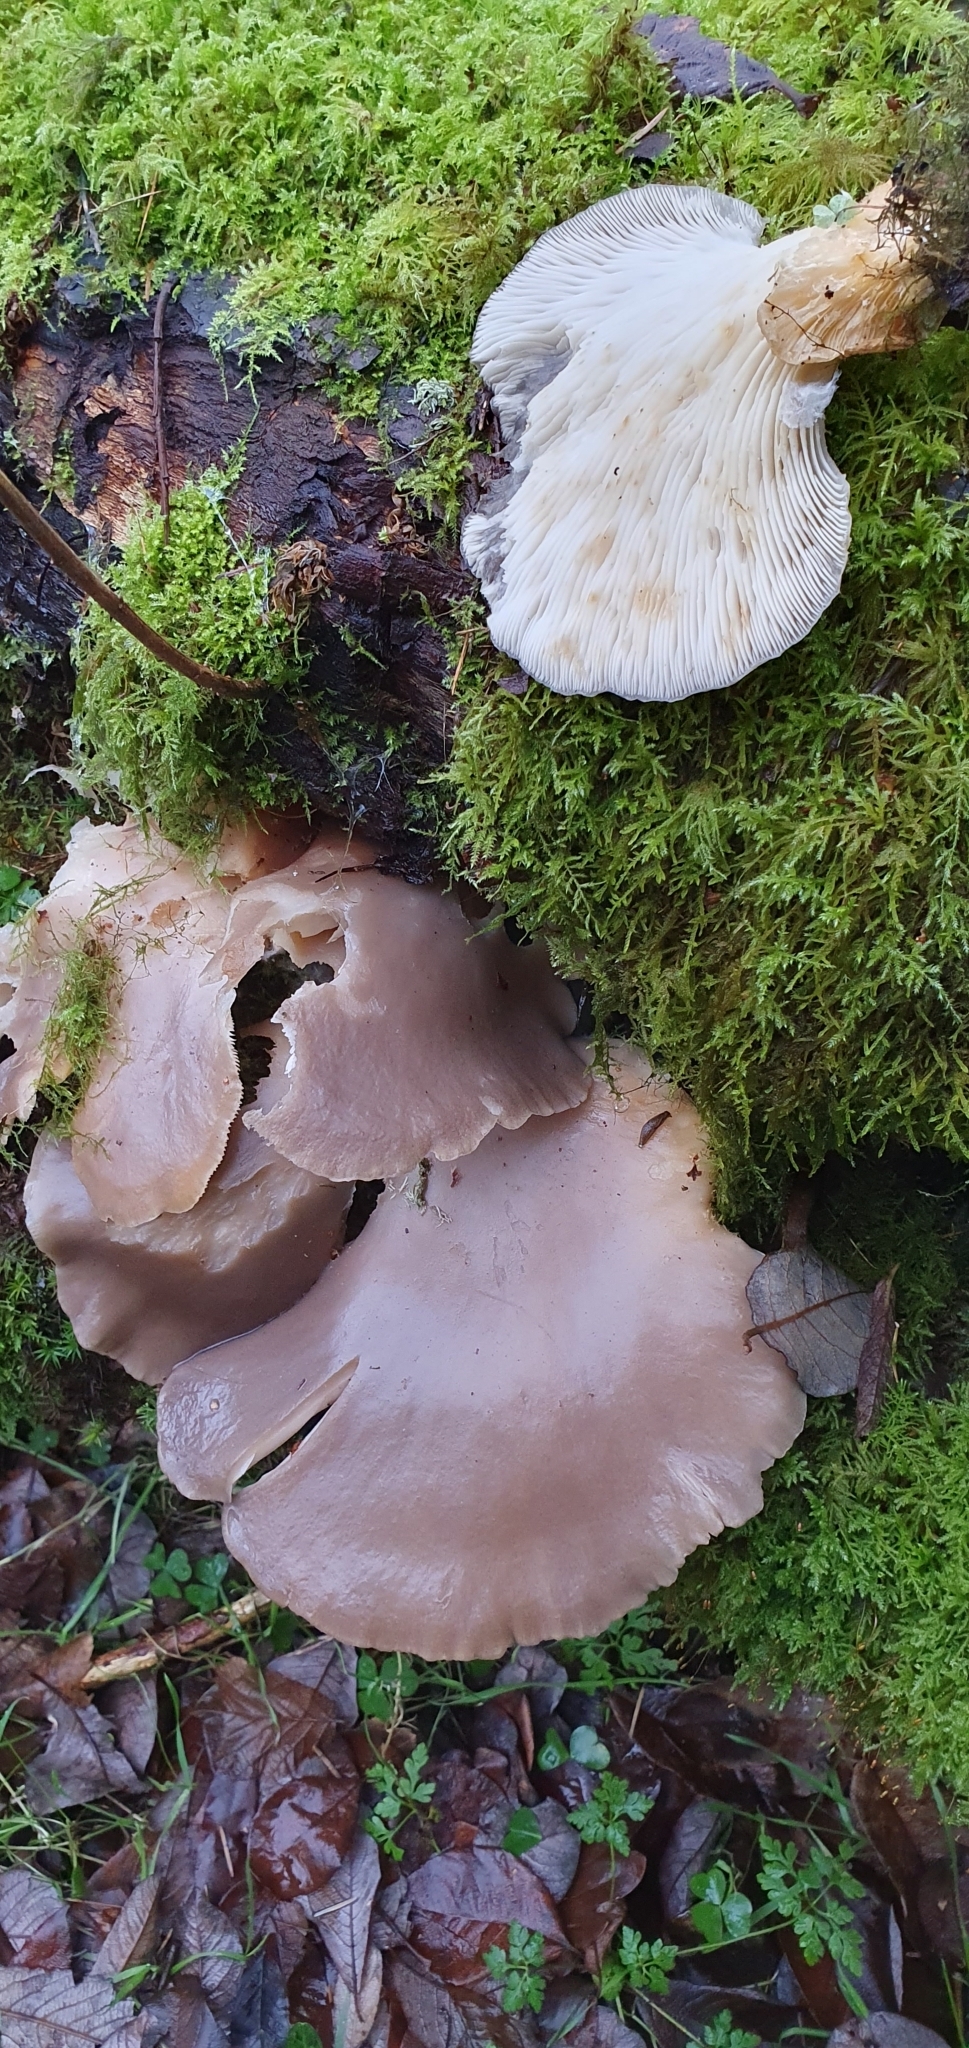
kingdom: Fungi
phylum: Basidiomycota
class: Agaricomycetes
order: Agaricales
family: Pleurotaceae
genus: Pleurotus
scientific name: Pleurotus ostreatus
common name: Oyster mushroom
